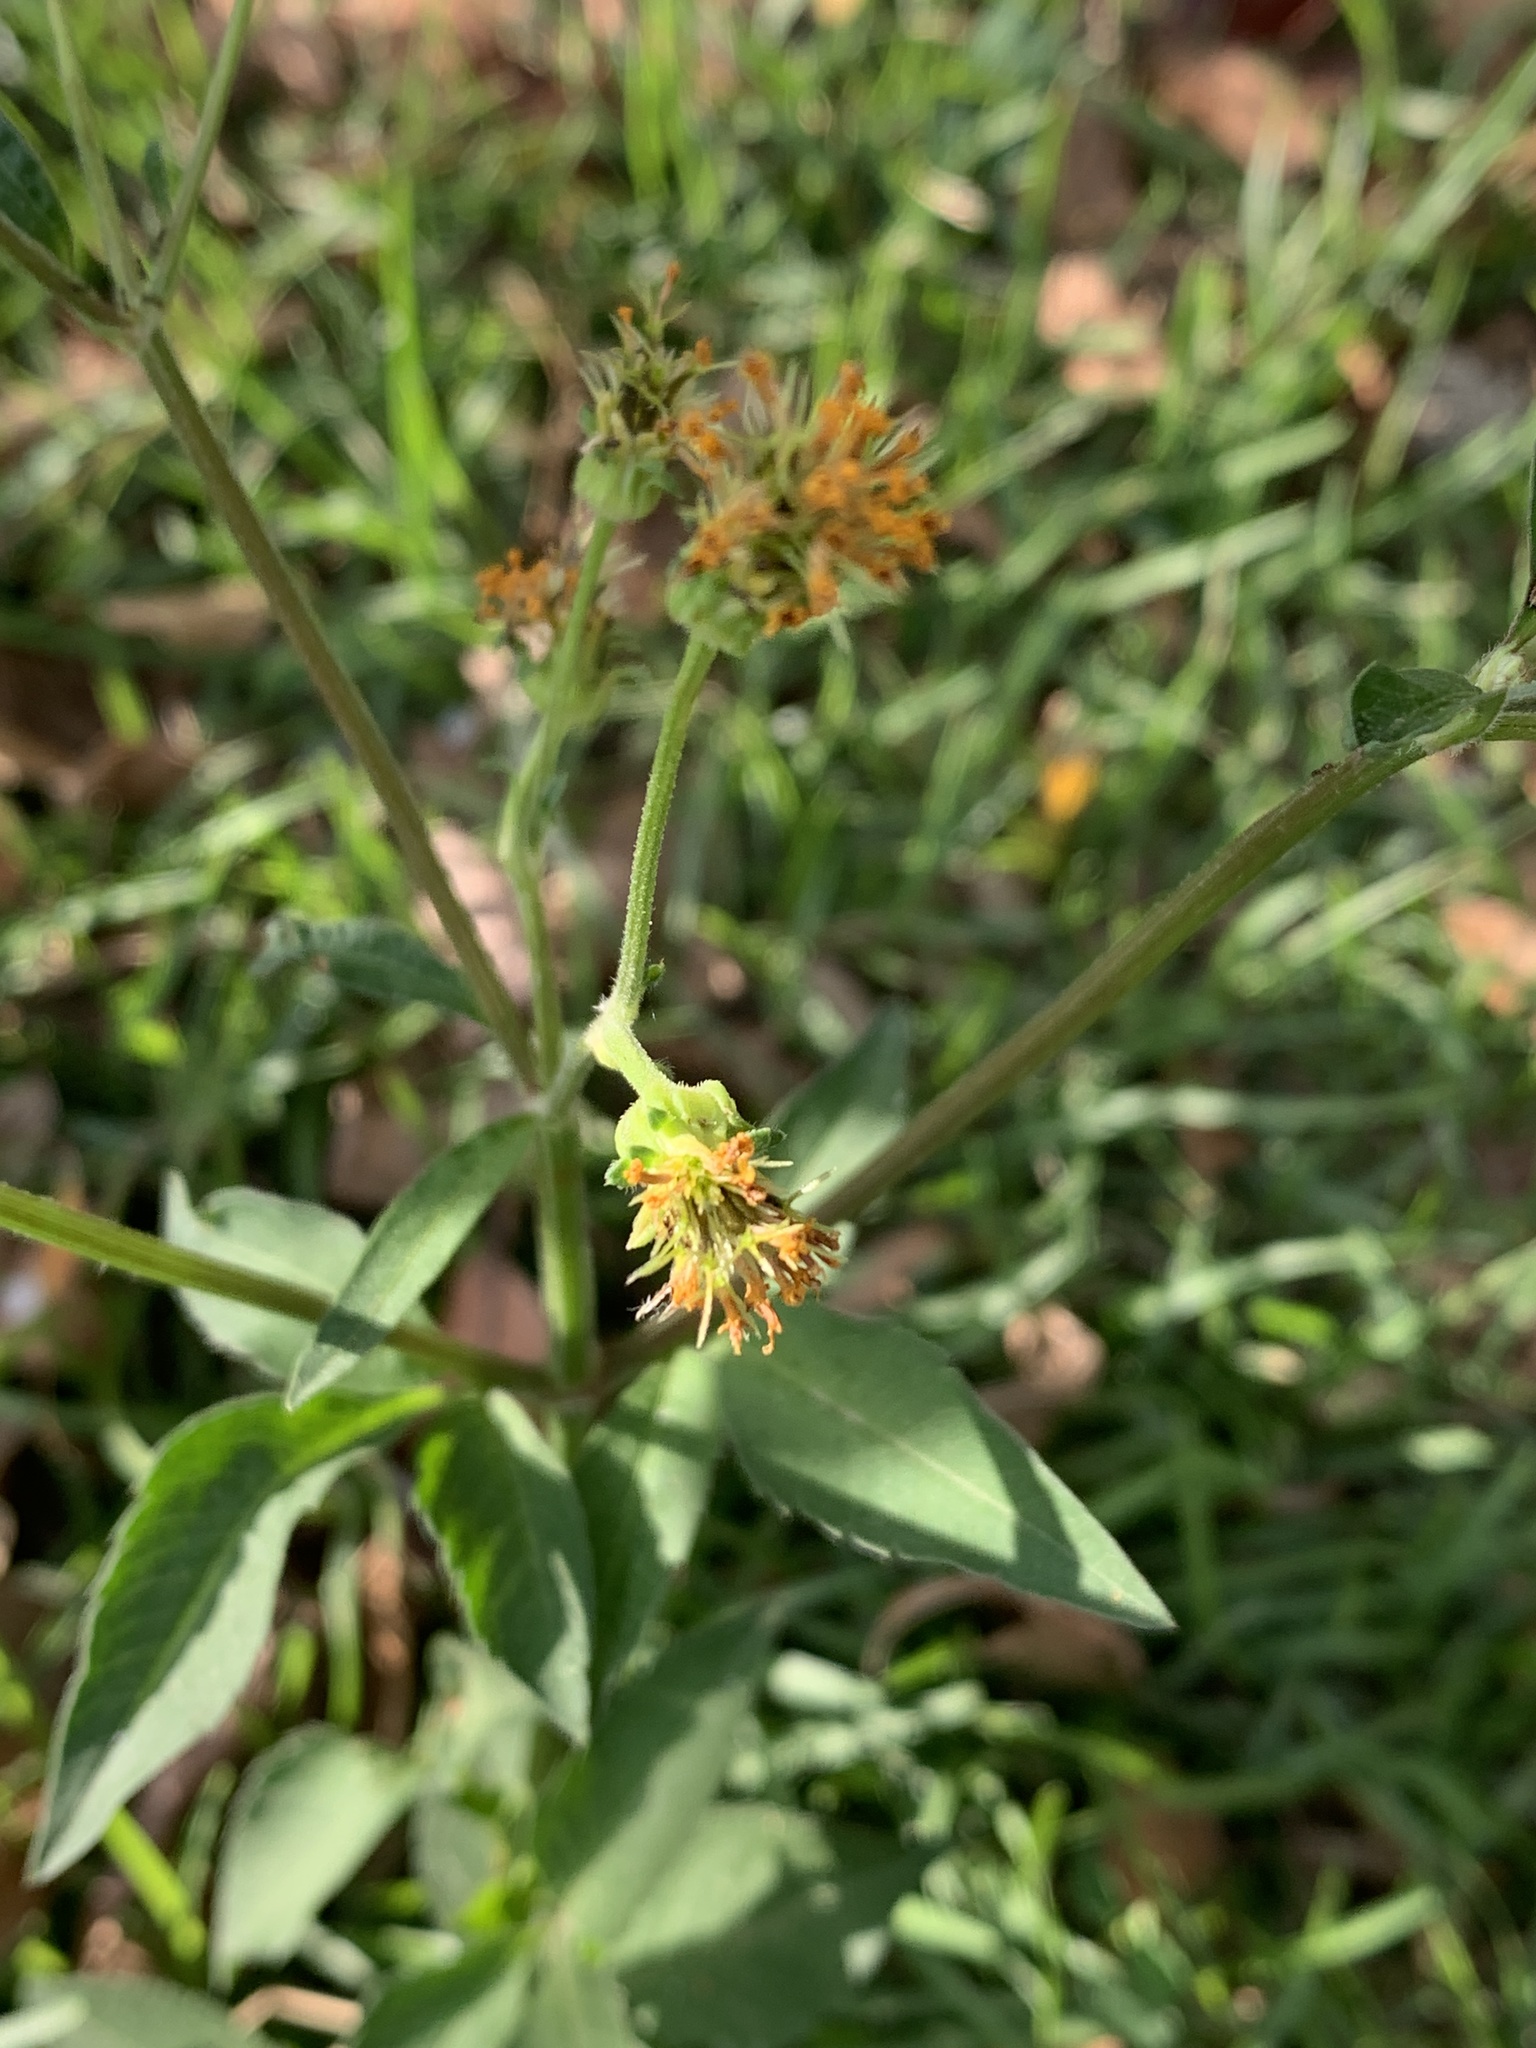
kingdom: Plantae
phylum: Tracheophyta
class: Magnoliopsida
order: Asterales
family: Asteraceae
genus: Bidens
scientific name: Bidens alba
